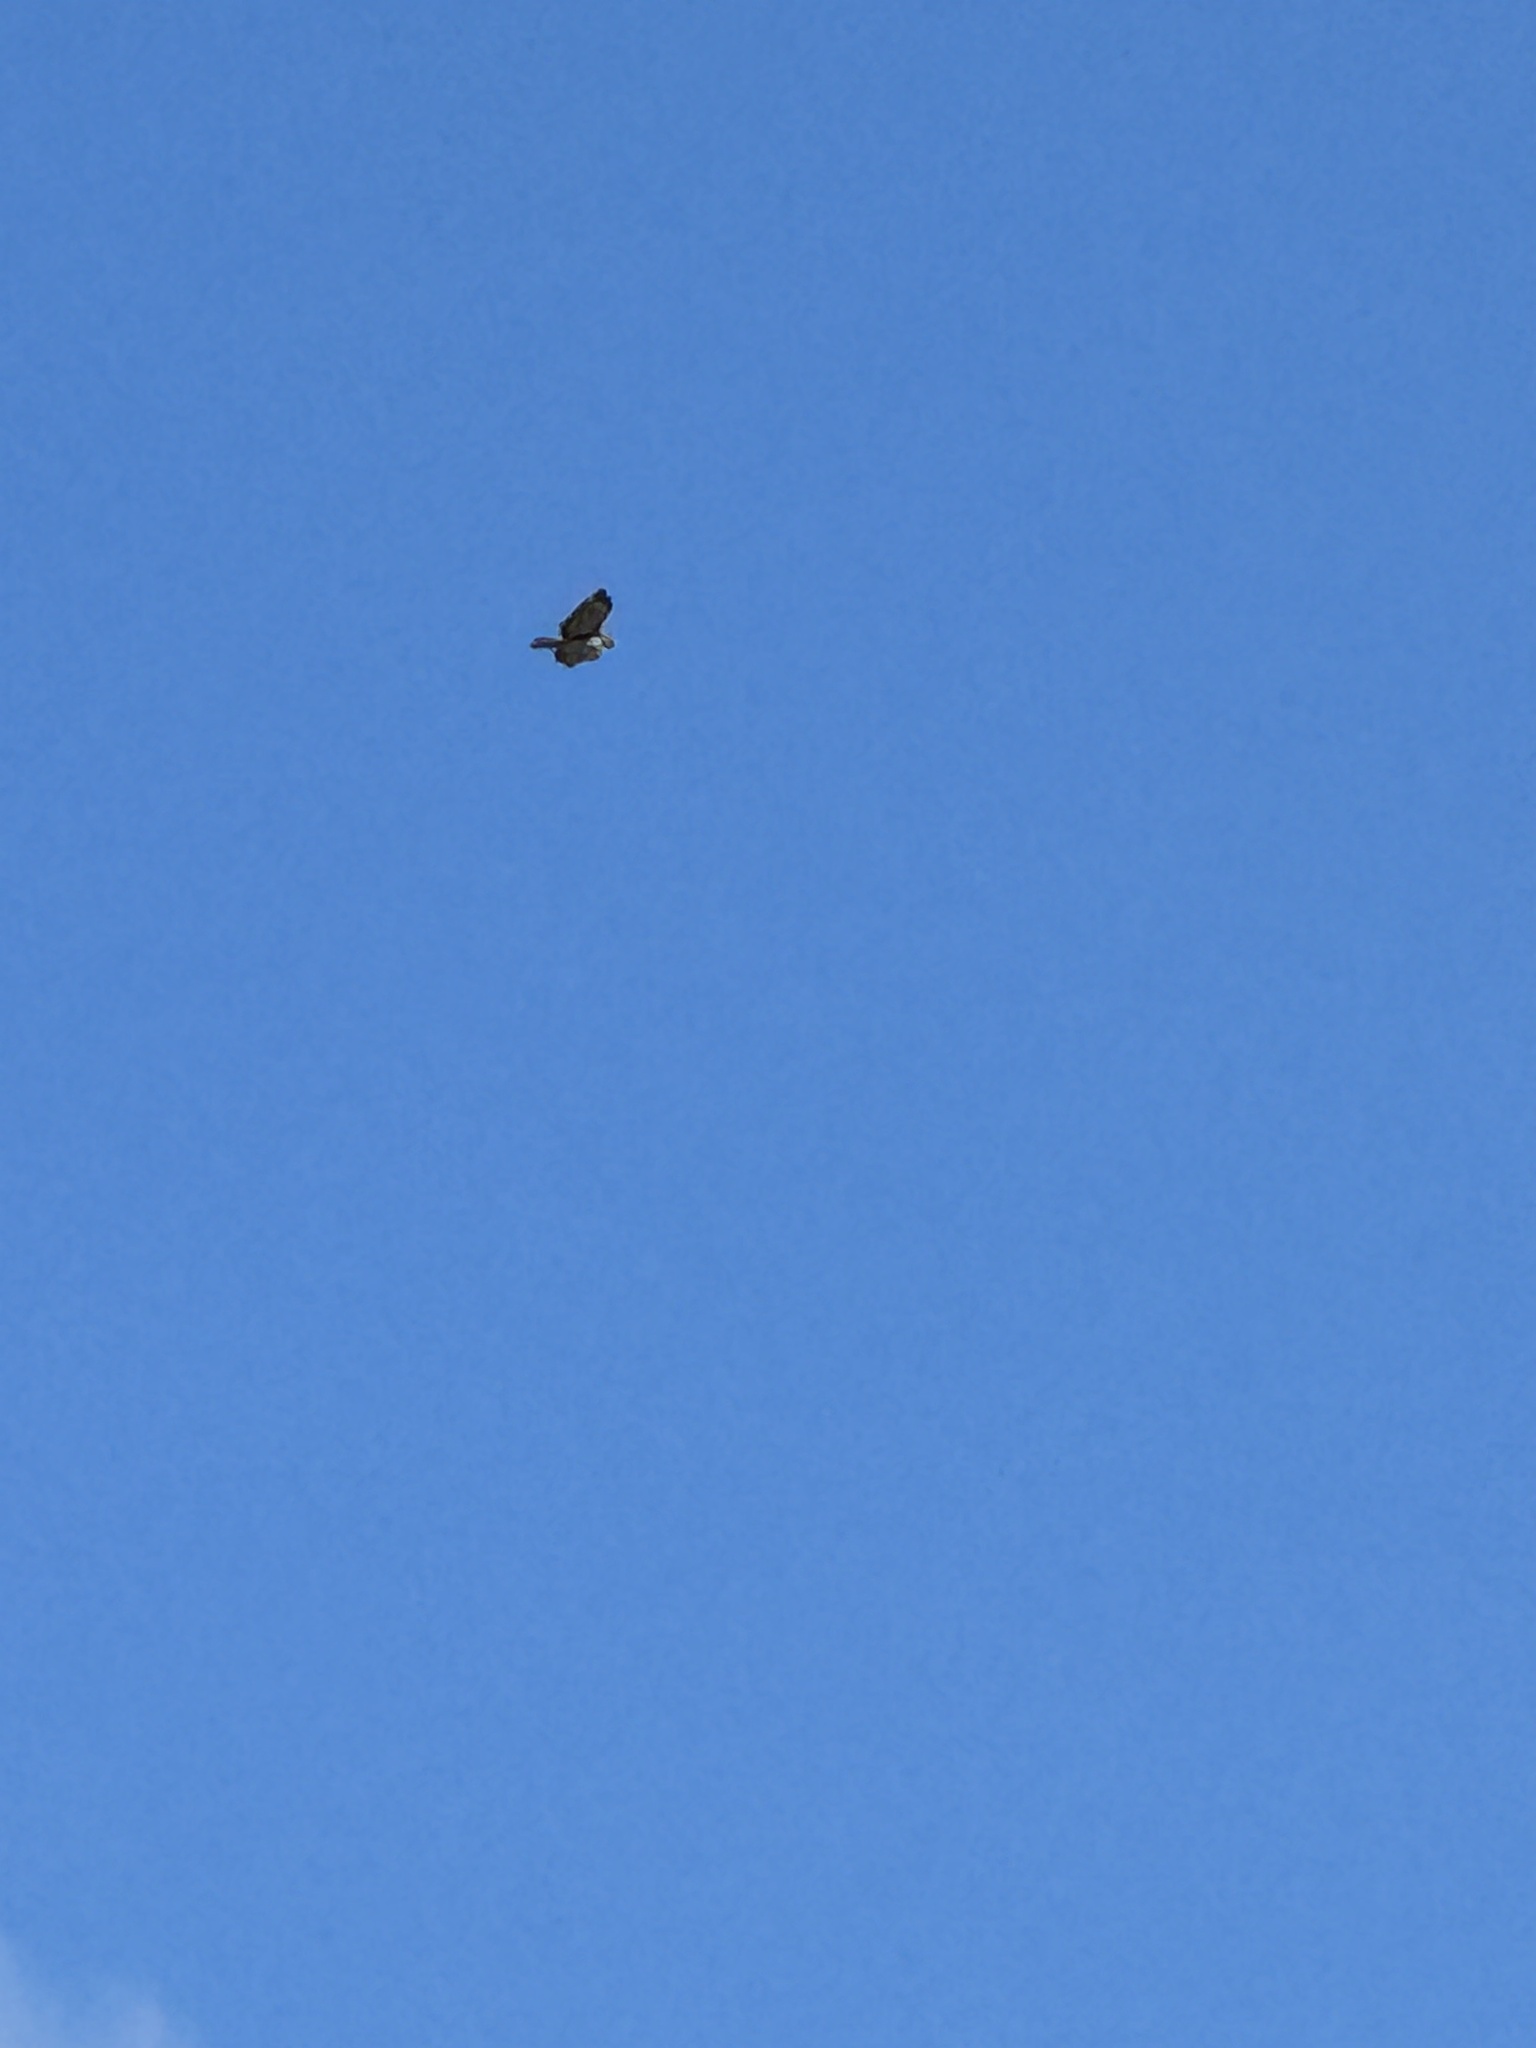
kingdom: Animalia
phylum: Chordata
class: Aves
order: Accipitriformes
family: Accipitridae
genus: Buteo
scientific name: Buteo jamaicensis
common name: Red-tailed hawk
